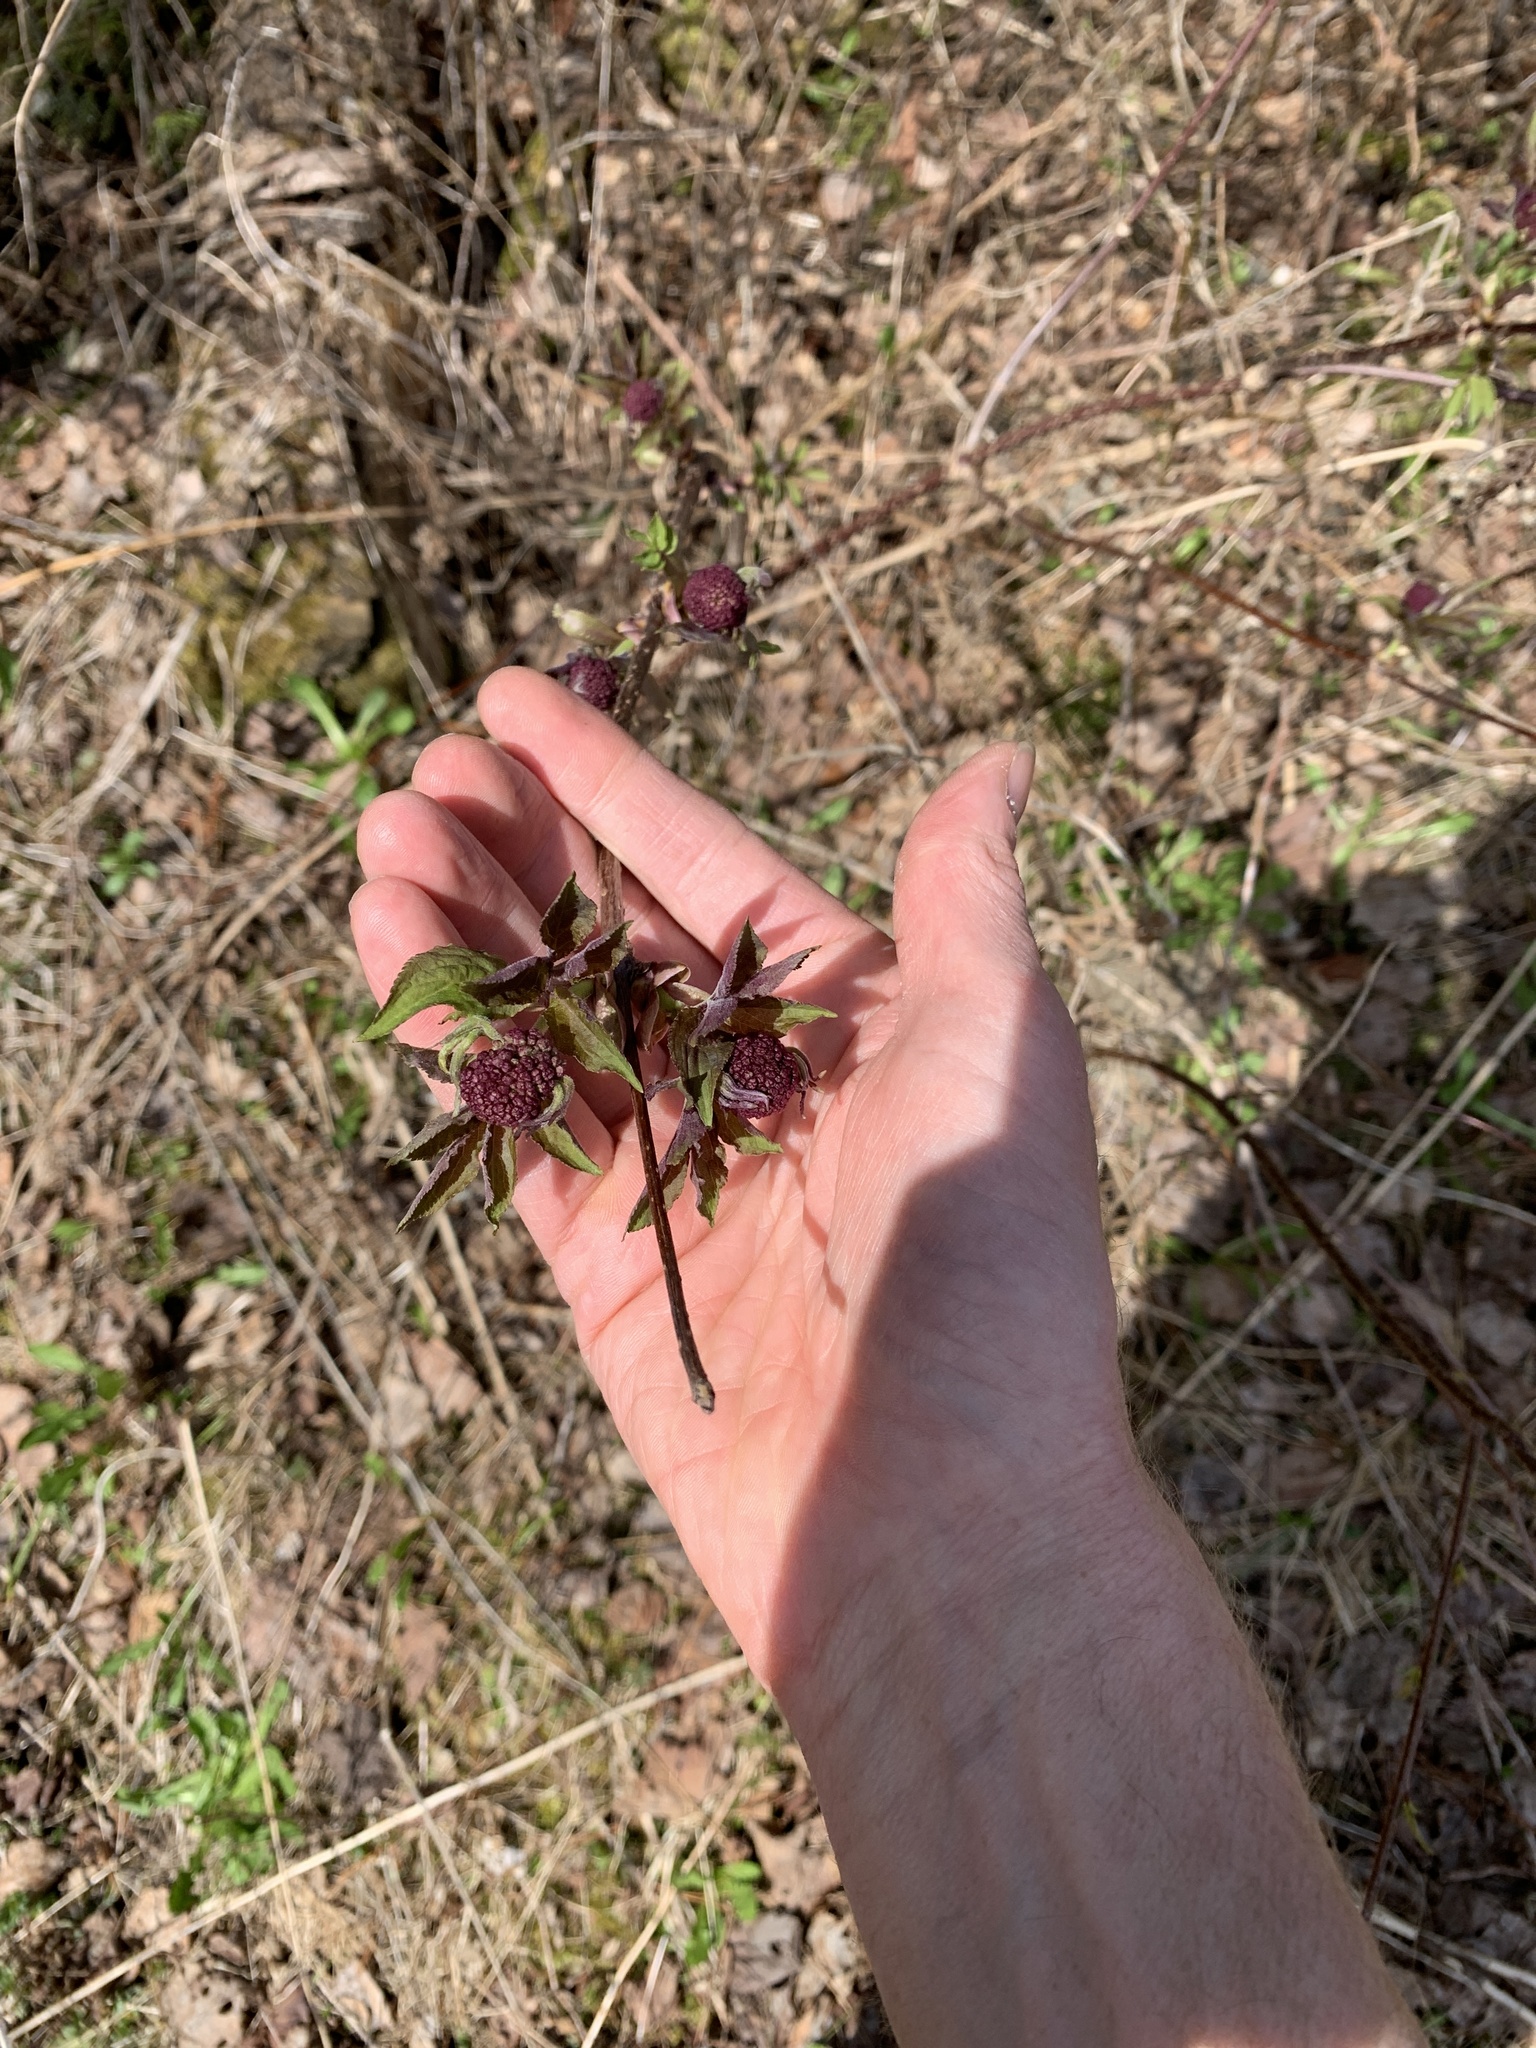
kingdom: Plantae
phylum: Tracheophyta
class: Magnoliopsida
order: Dipsacales
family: Viburnaceae
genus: Sambucus
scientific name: Sambucus racemosa
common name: Red-berried elder
